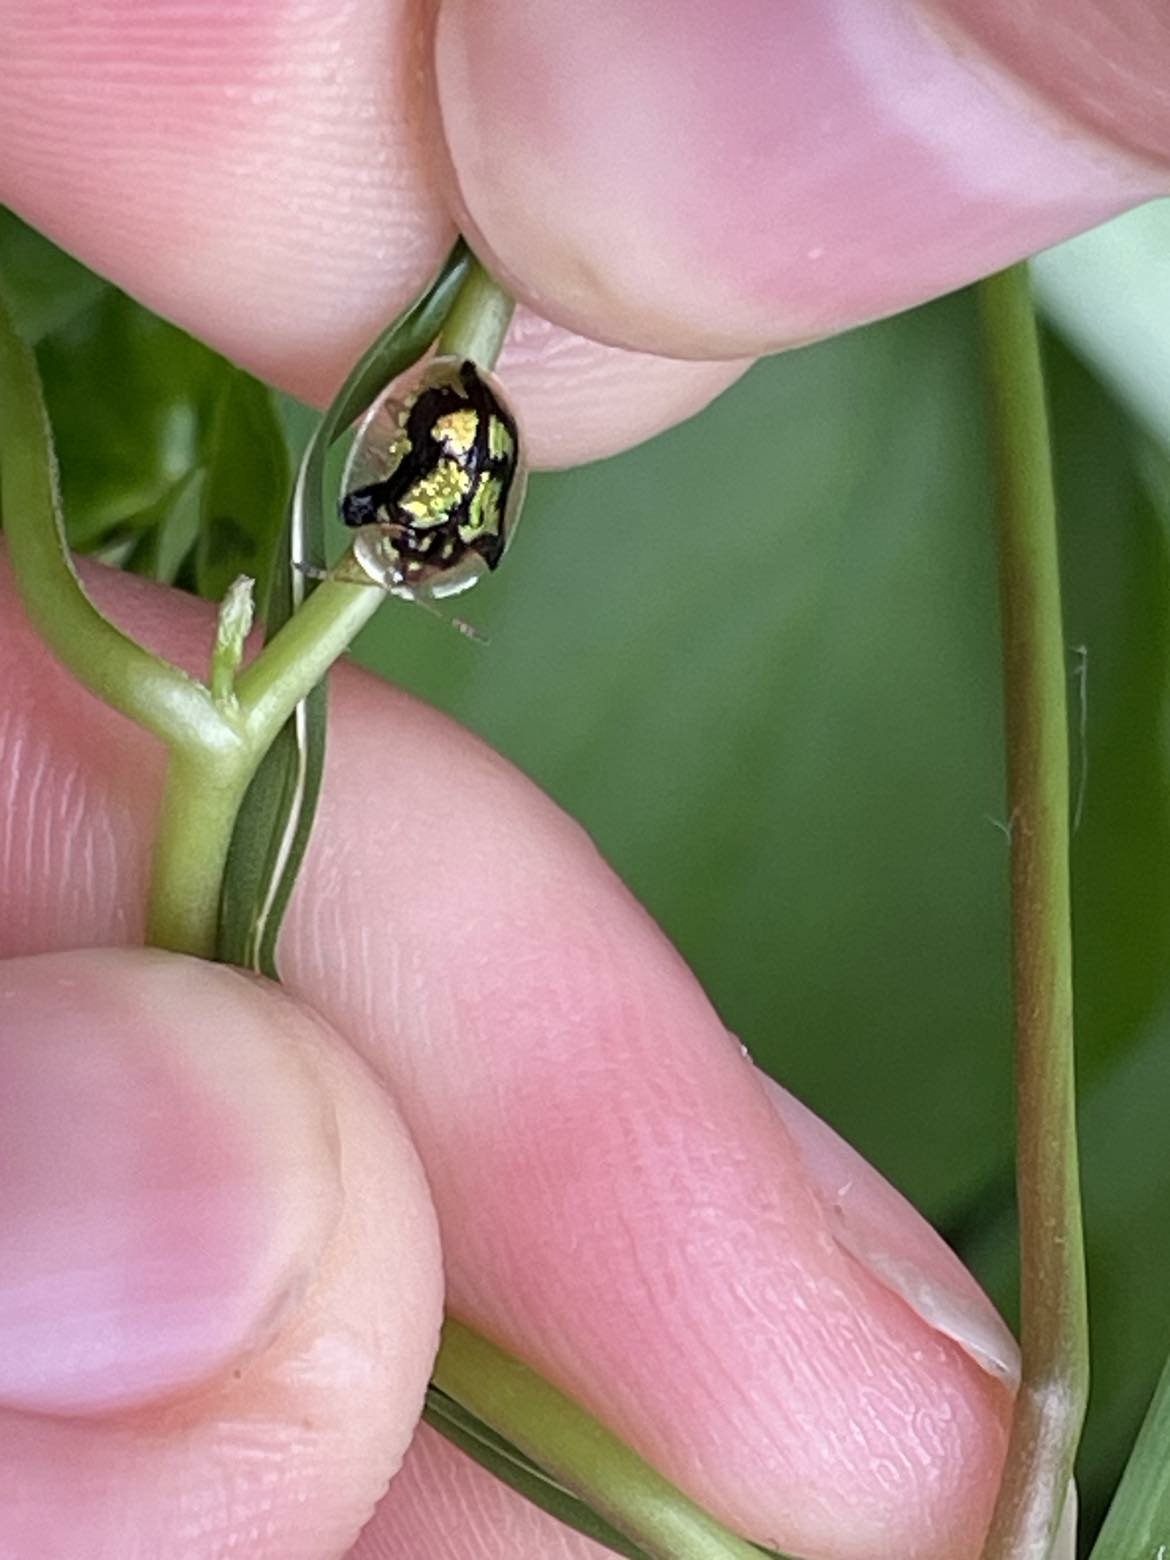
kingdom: Animalia
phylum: Arthropoda
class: Insecta
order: Coleoptera
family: Chrysomelidae
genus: Deloyala
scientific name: Deloyala guttata
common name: Mottled tortoise beetle
